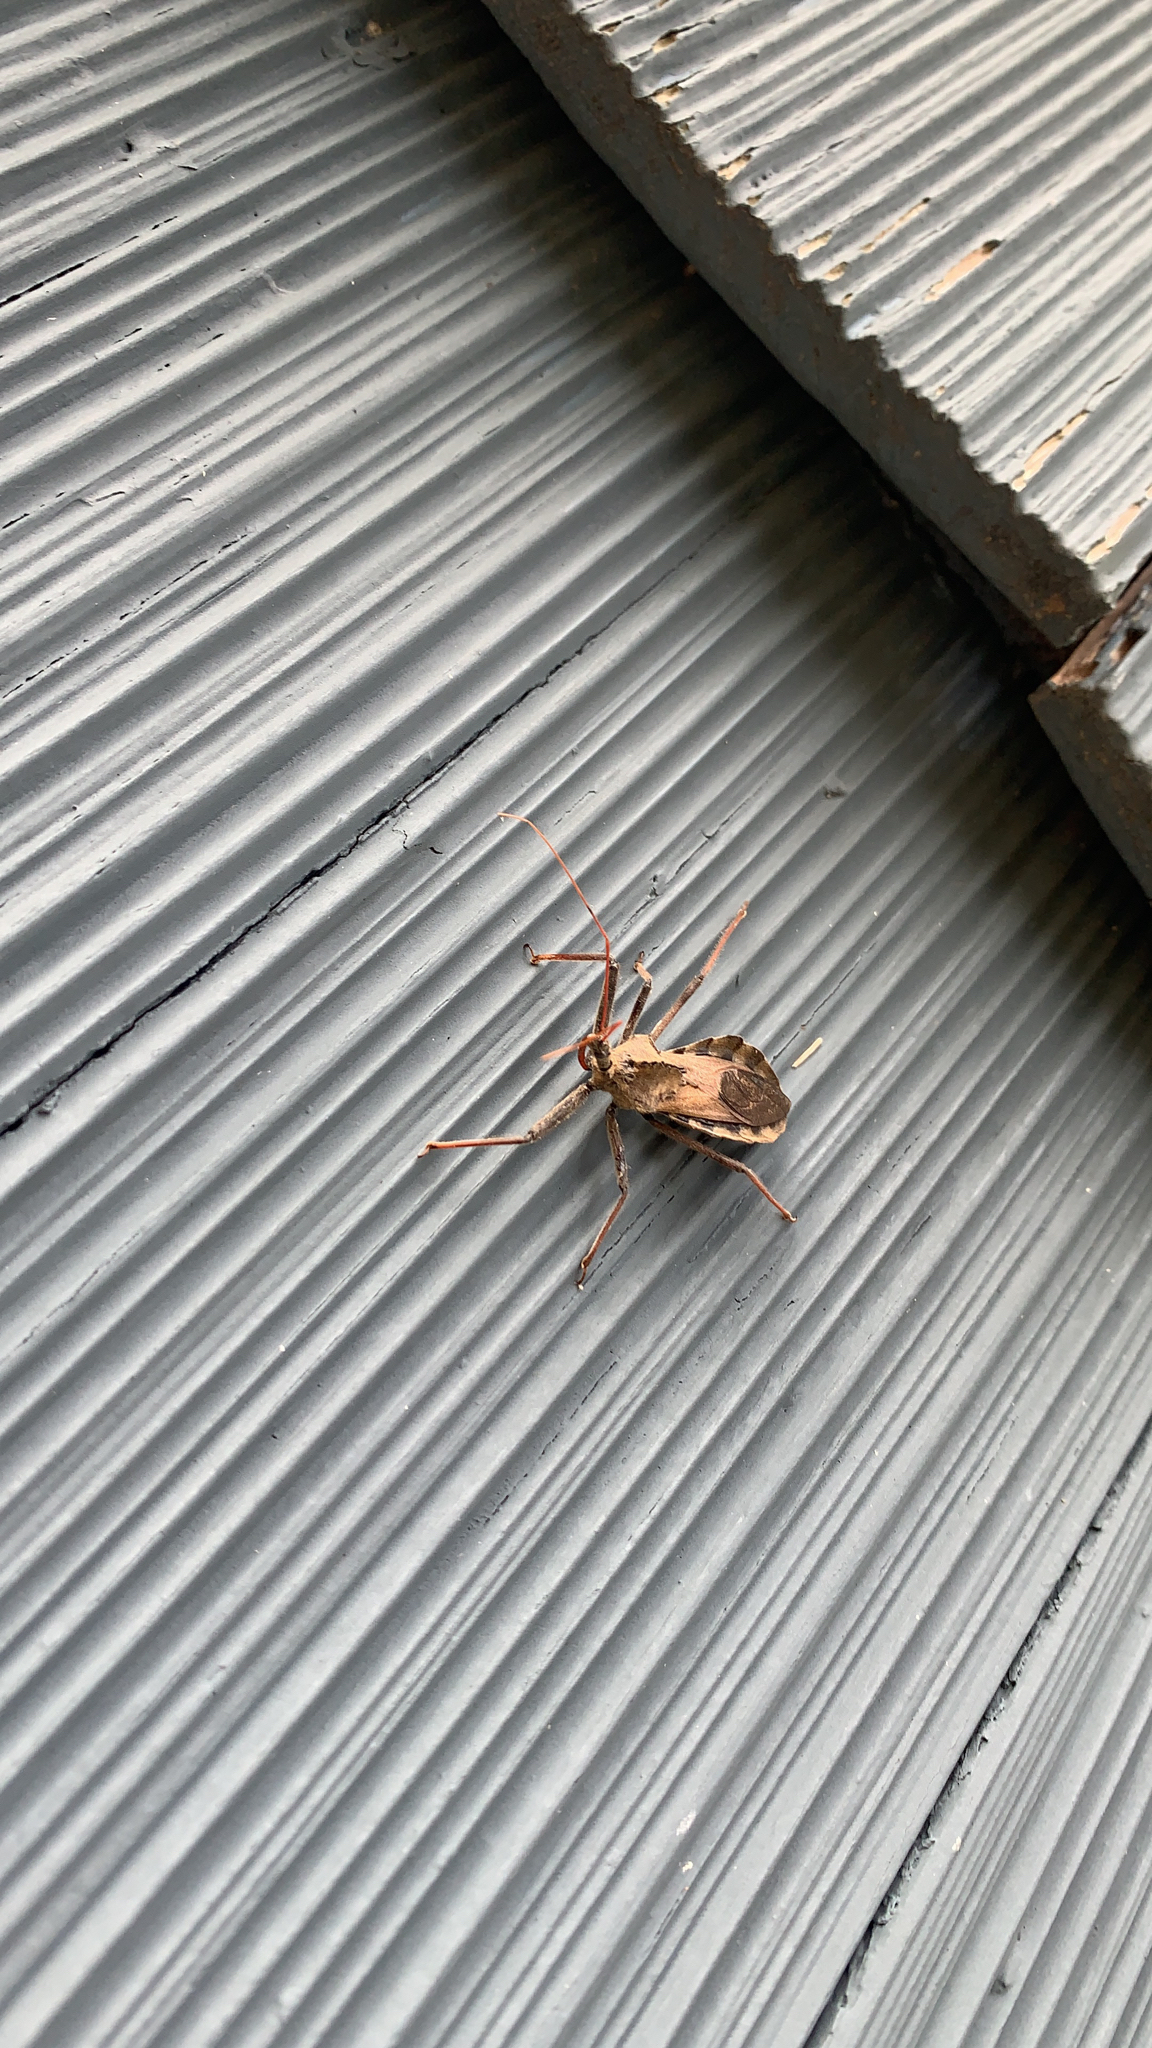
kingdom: Animalia
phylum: Arthropoda
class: Insecta
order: Hemiptera
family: Reduviidae
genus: Arilus
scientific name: Arilus cristatus
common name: North american wheel bug
